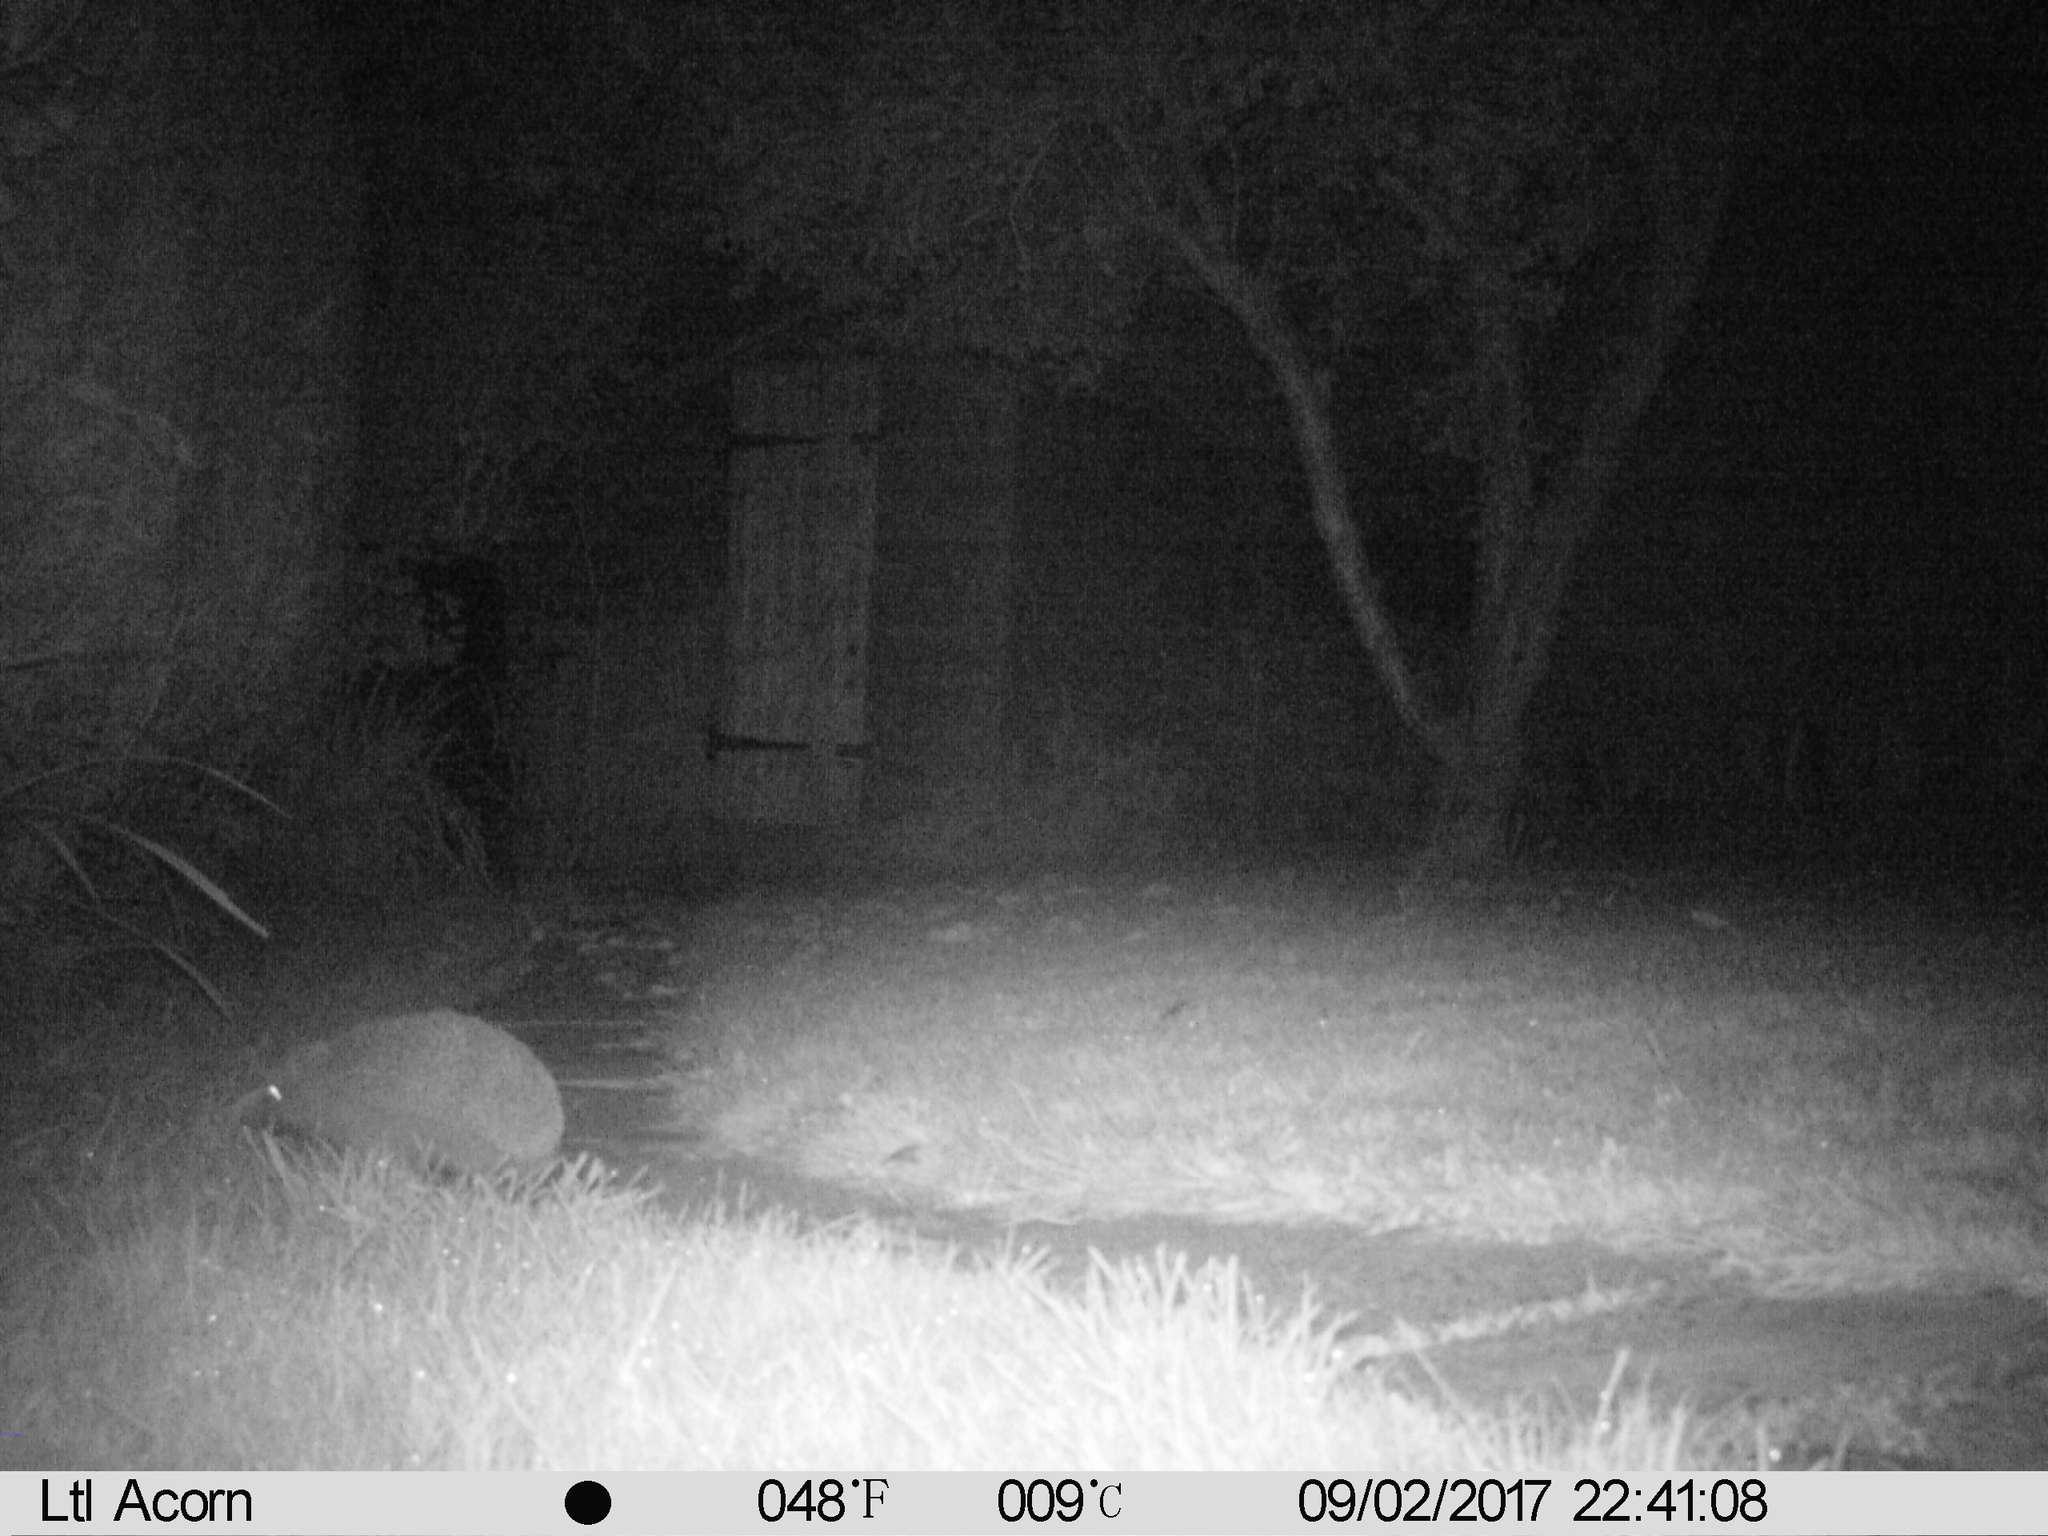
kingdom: Animalia
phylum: Chordata
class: Mammalia
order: Erinaceomorpha
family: Erinaceidae
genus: Erinaceus
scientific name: Erinaceus europaeus
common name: West european hedgehog
